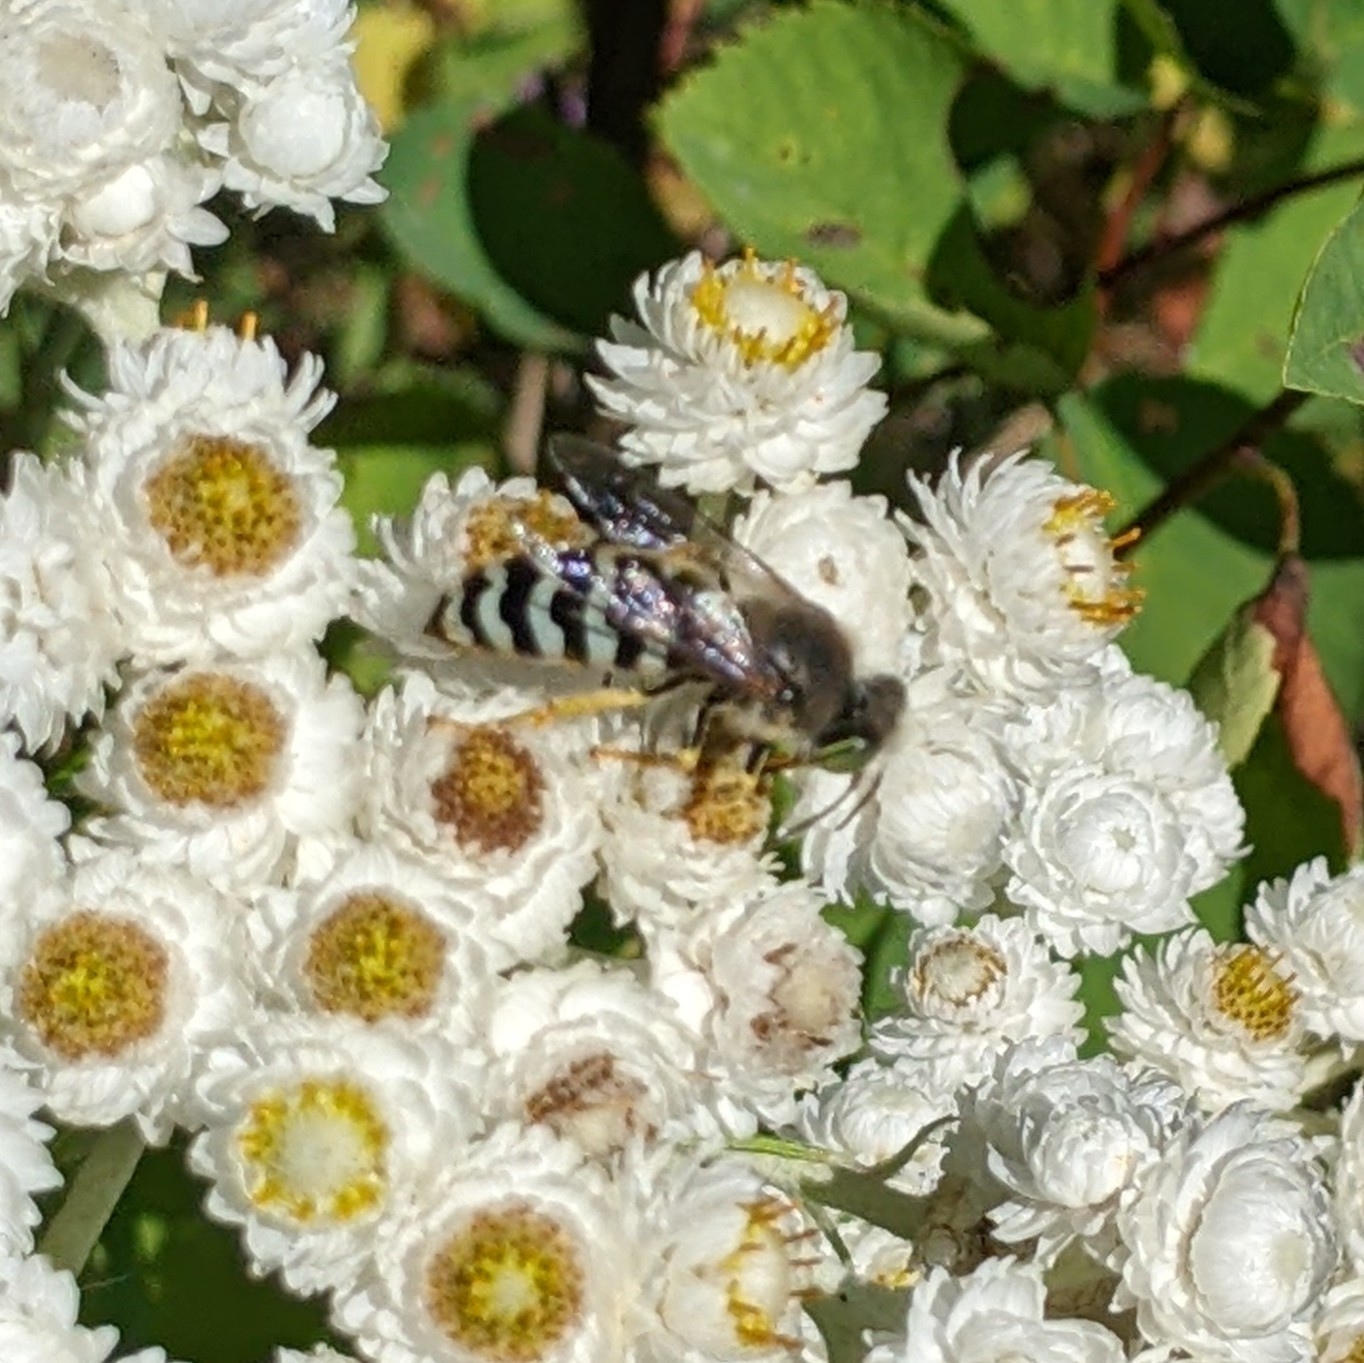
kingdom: Animalia
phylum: Arthropoda
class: Insecta
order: Hymenoptera
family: Crabronidae
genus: Bembix
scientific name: Bembix americana
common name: American sand wasp
